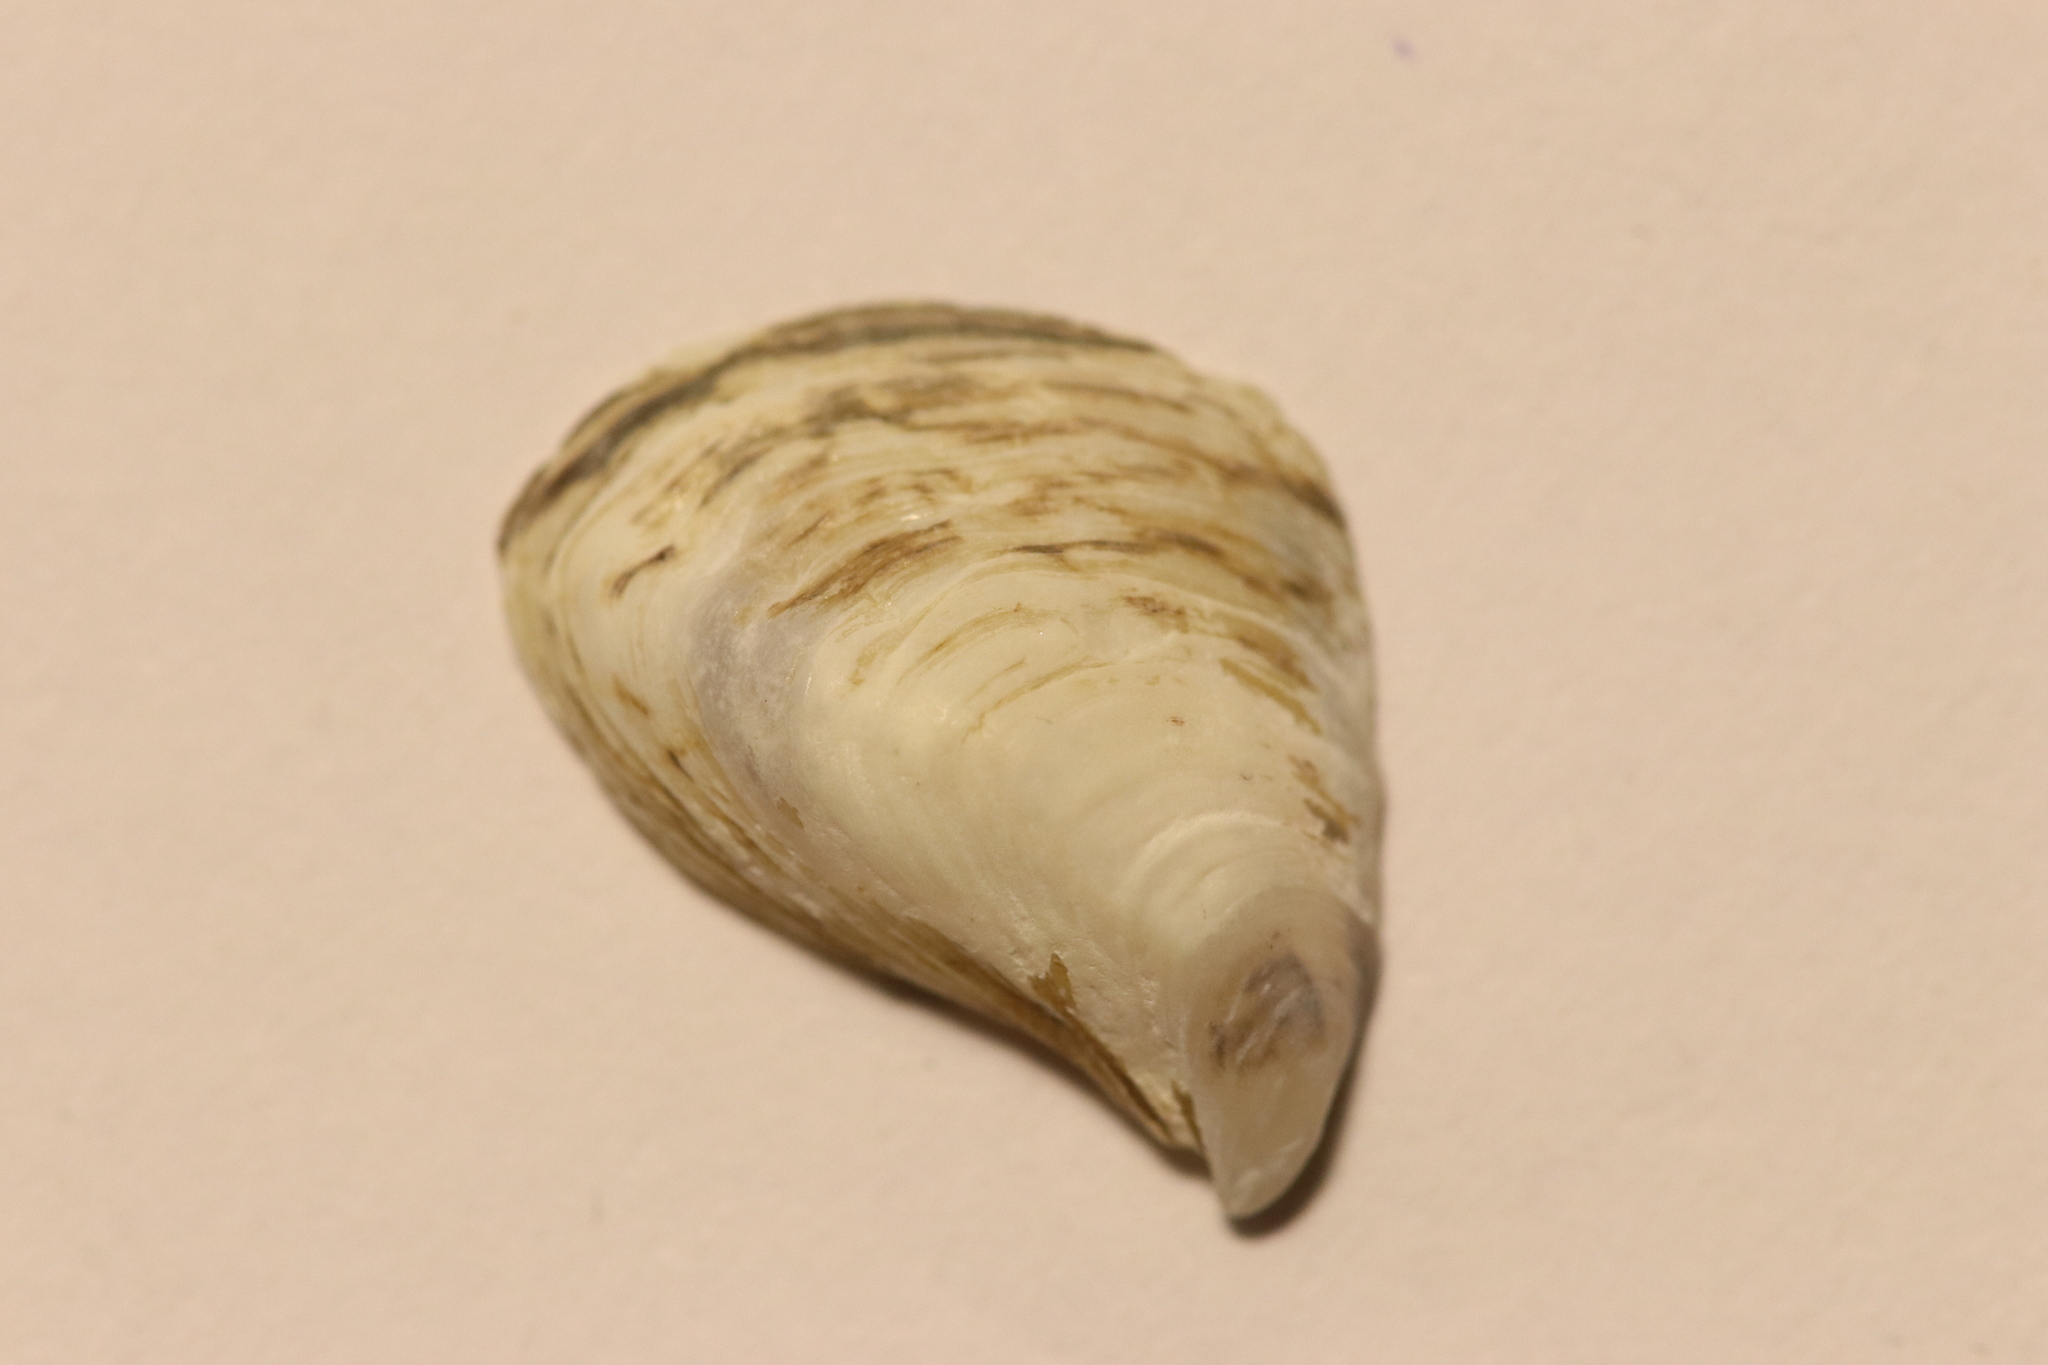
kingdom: Animalia
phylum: Mollusca
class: Bivalvia
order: Myida
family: Dreissenidae
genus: Dreissena
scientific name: Dreissena bugensis
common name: Quagga mussel
